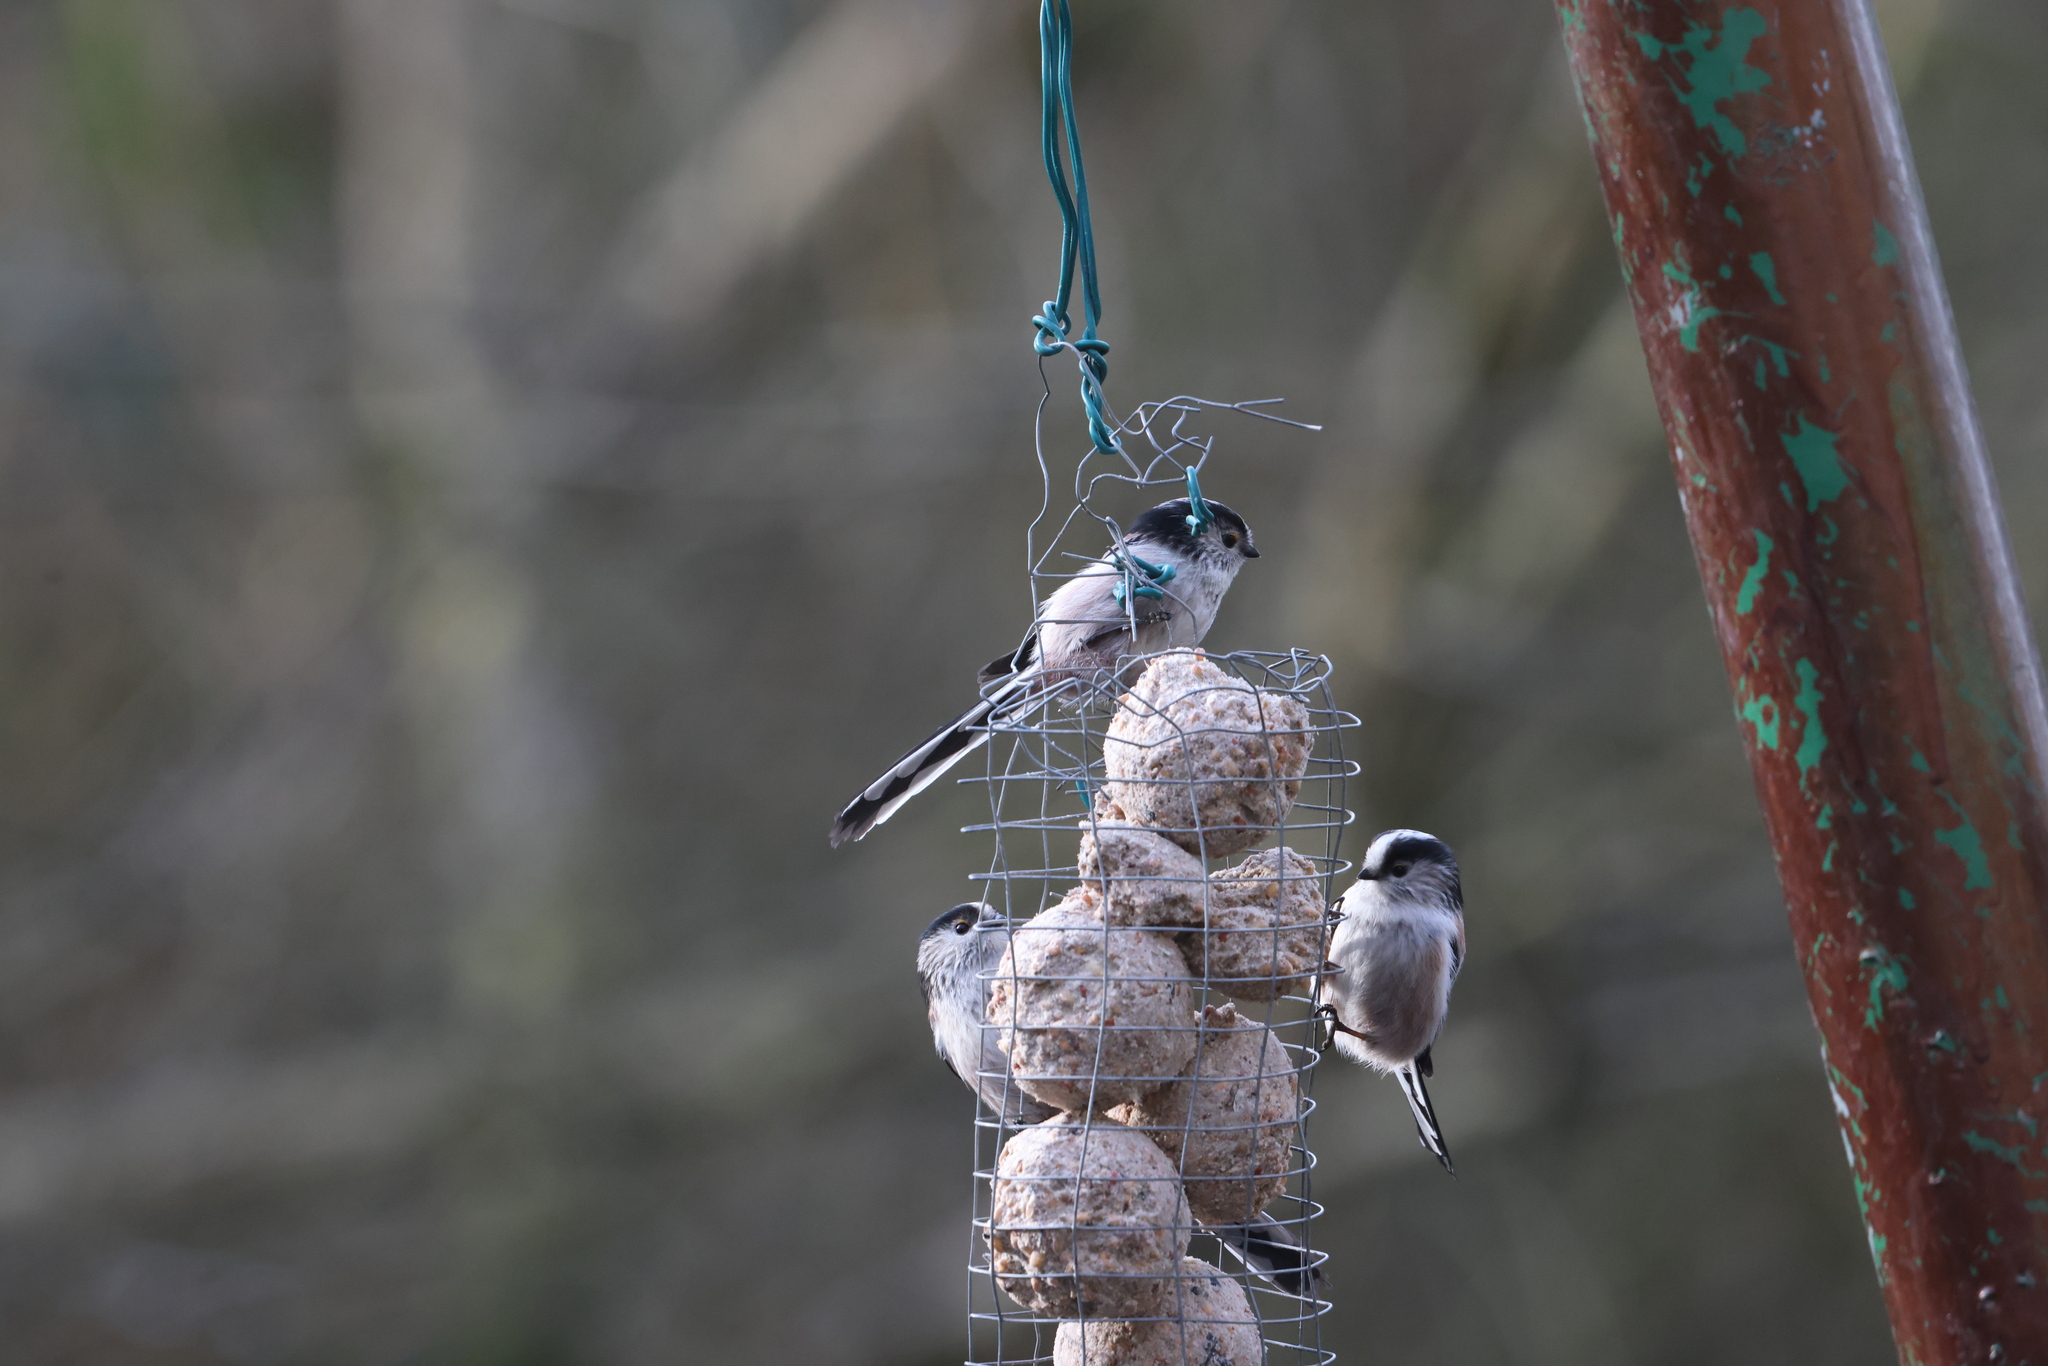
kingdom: Animalia
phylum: Chordata
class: Aves
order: Passeriformes
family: Aegithalidae
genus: Aegithalos
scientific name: Aegithalos caudatus
